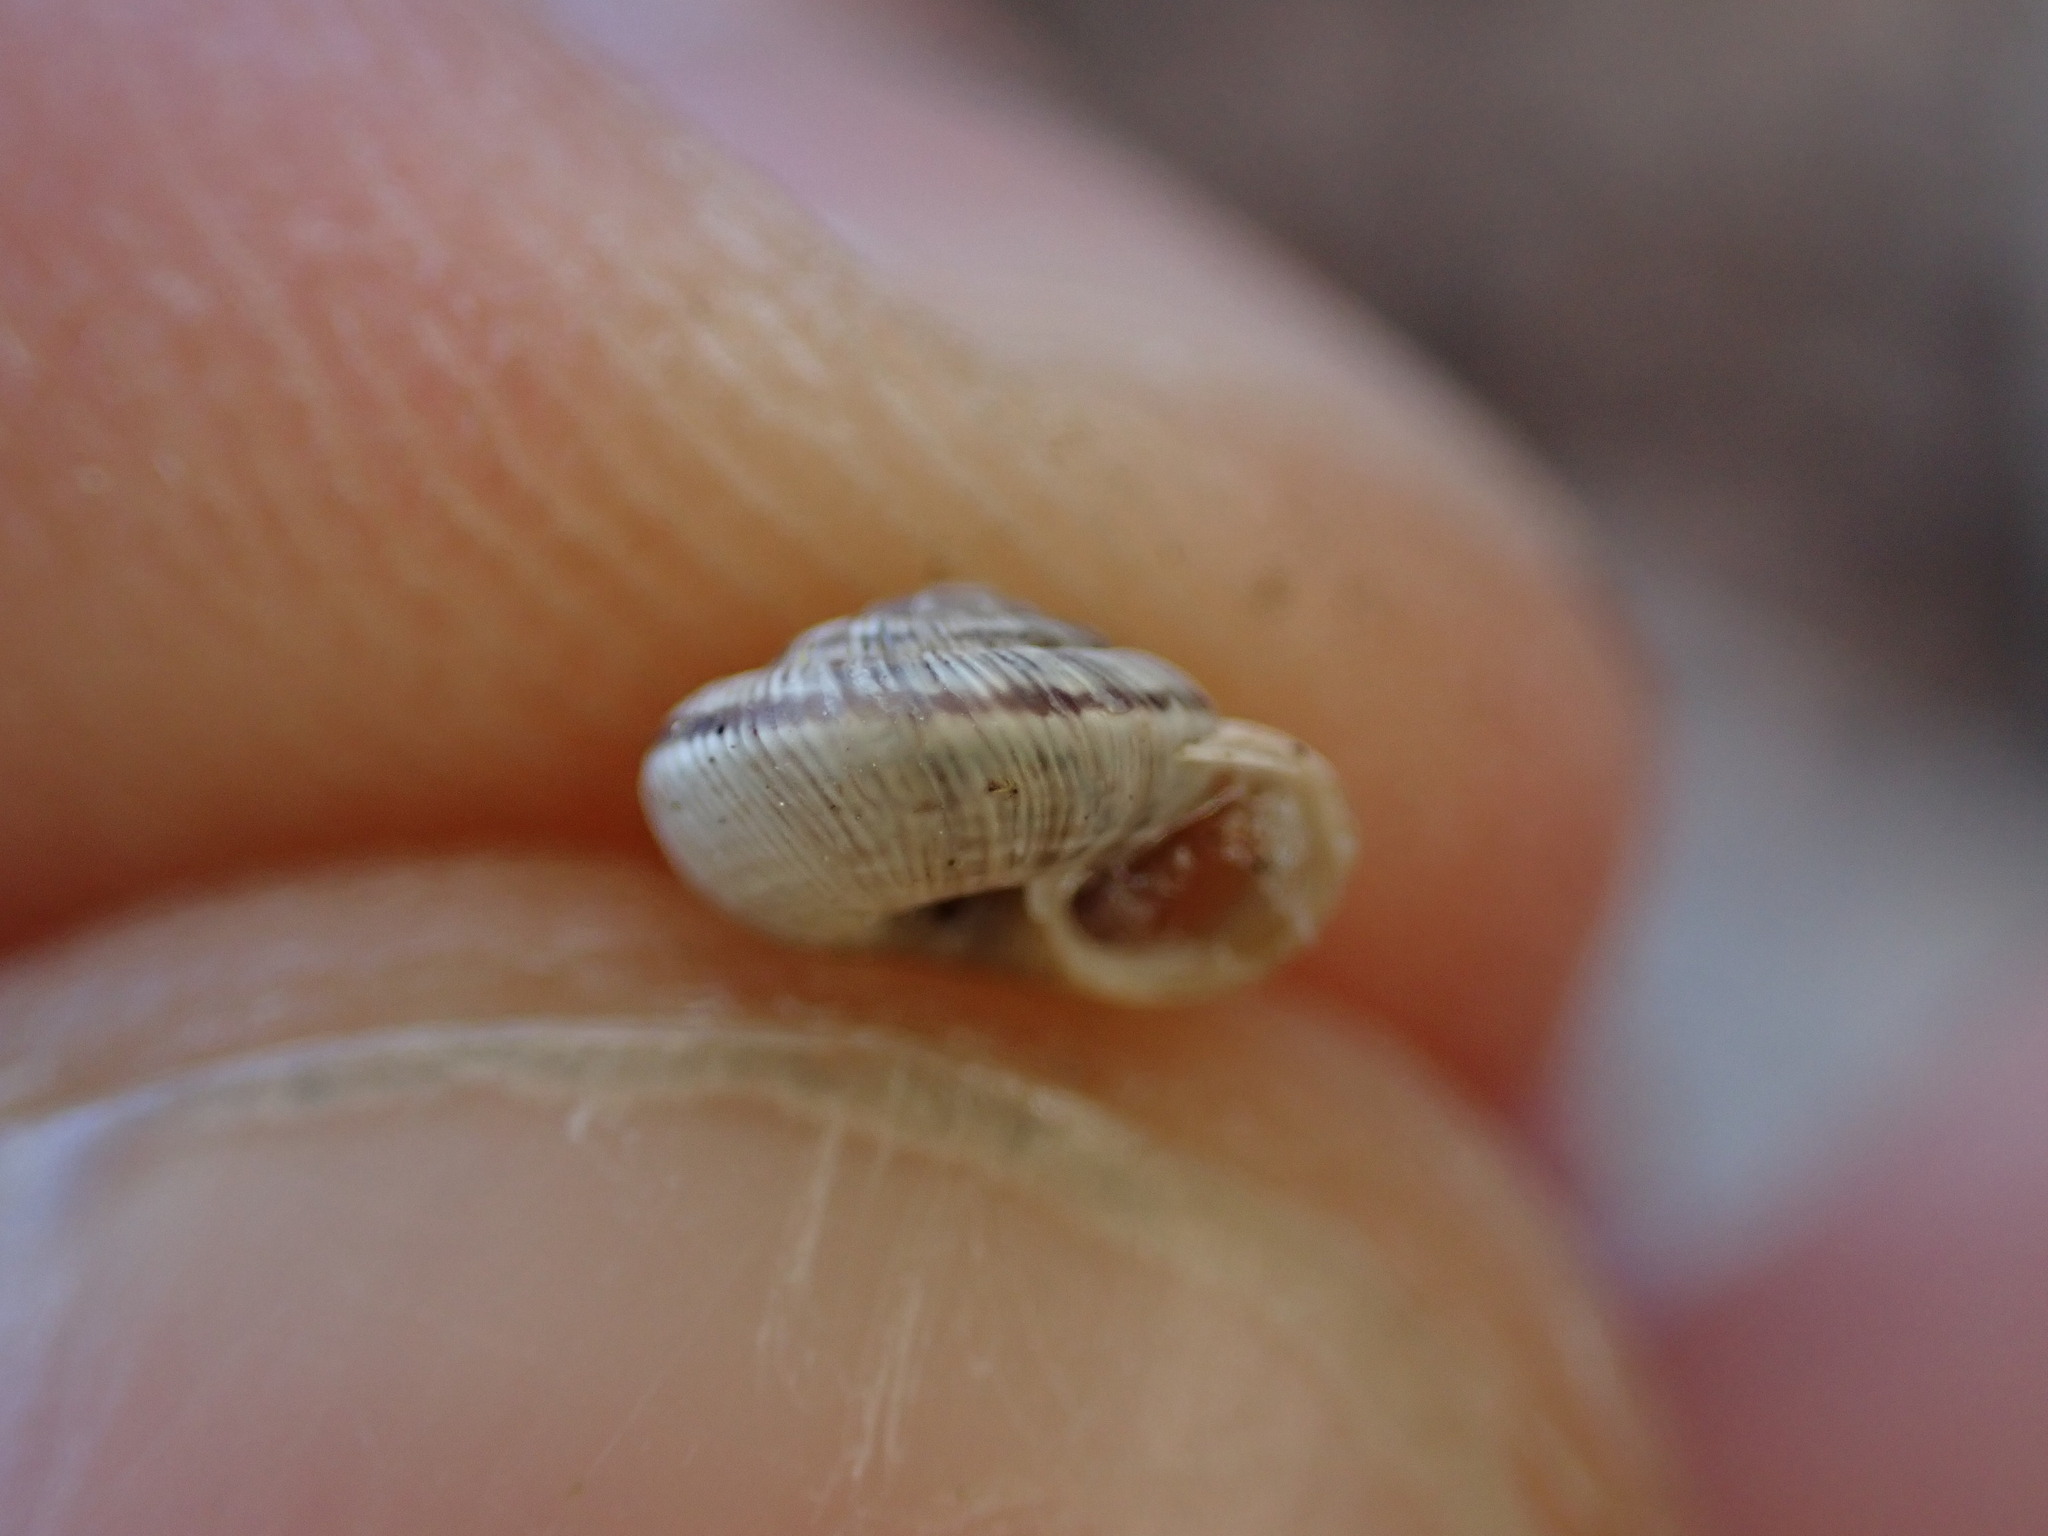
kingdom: Animalia
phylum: Mollusca
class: Gastropoda
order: Stylommatophora
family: Geomitridae
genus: Candidula
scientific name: Candidula rugosiuscula
